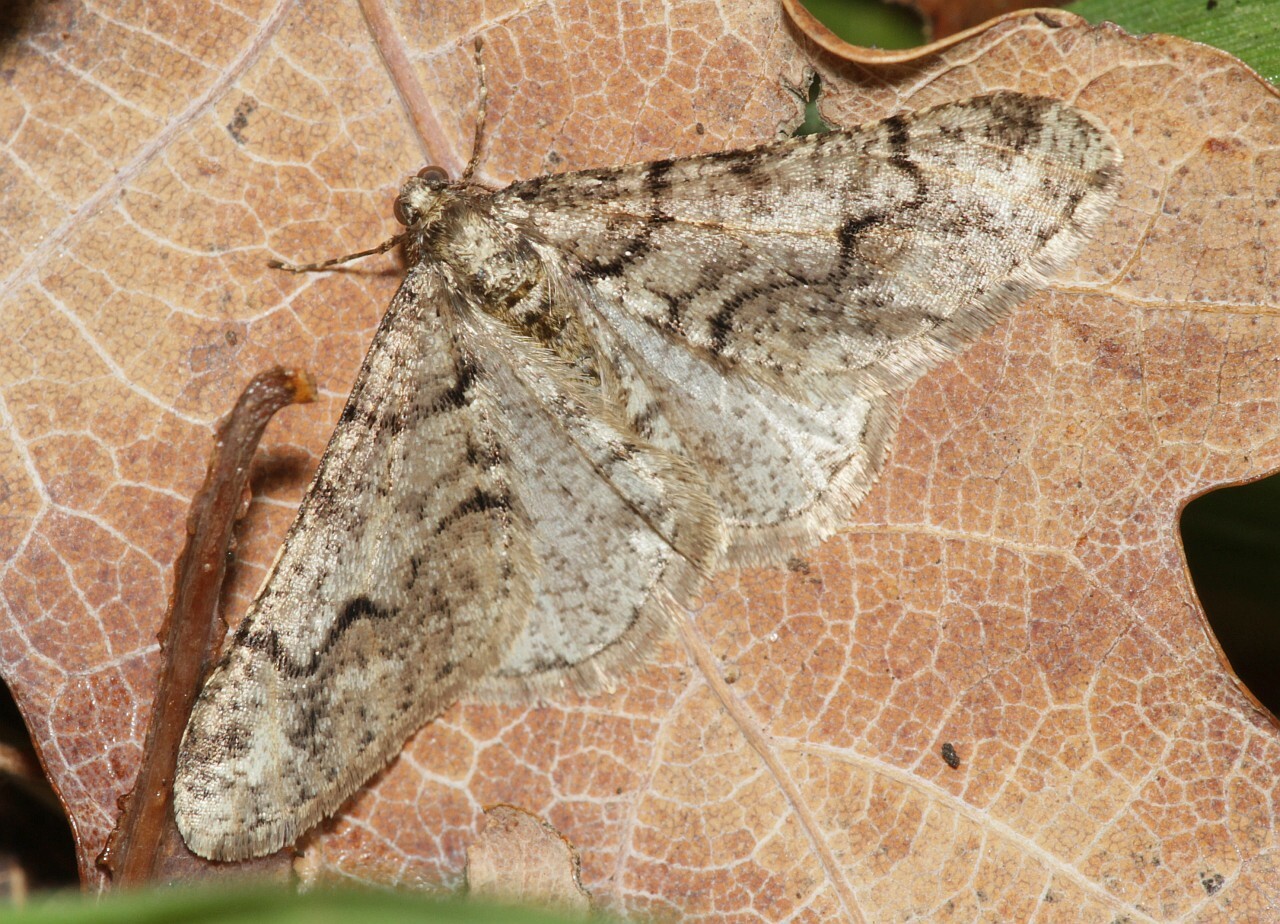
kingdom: Animalia
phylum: Arthropoda
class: Insecta
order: Lepidoptera
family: Geometridae
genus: Agriopis
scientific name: Agriopis leucophaearia
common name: Spring usher
